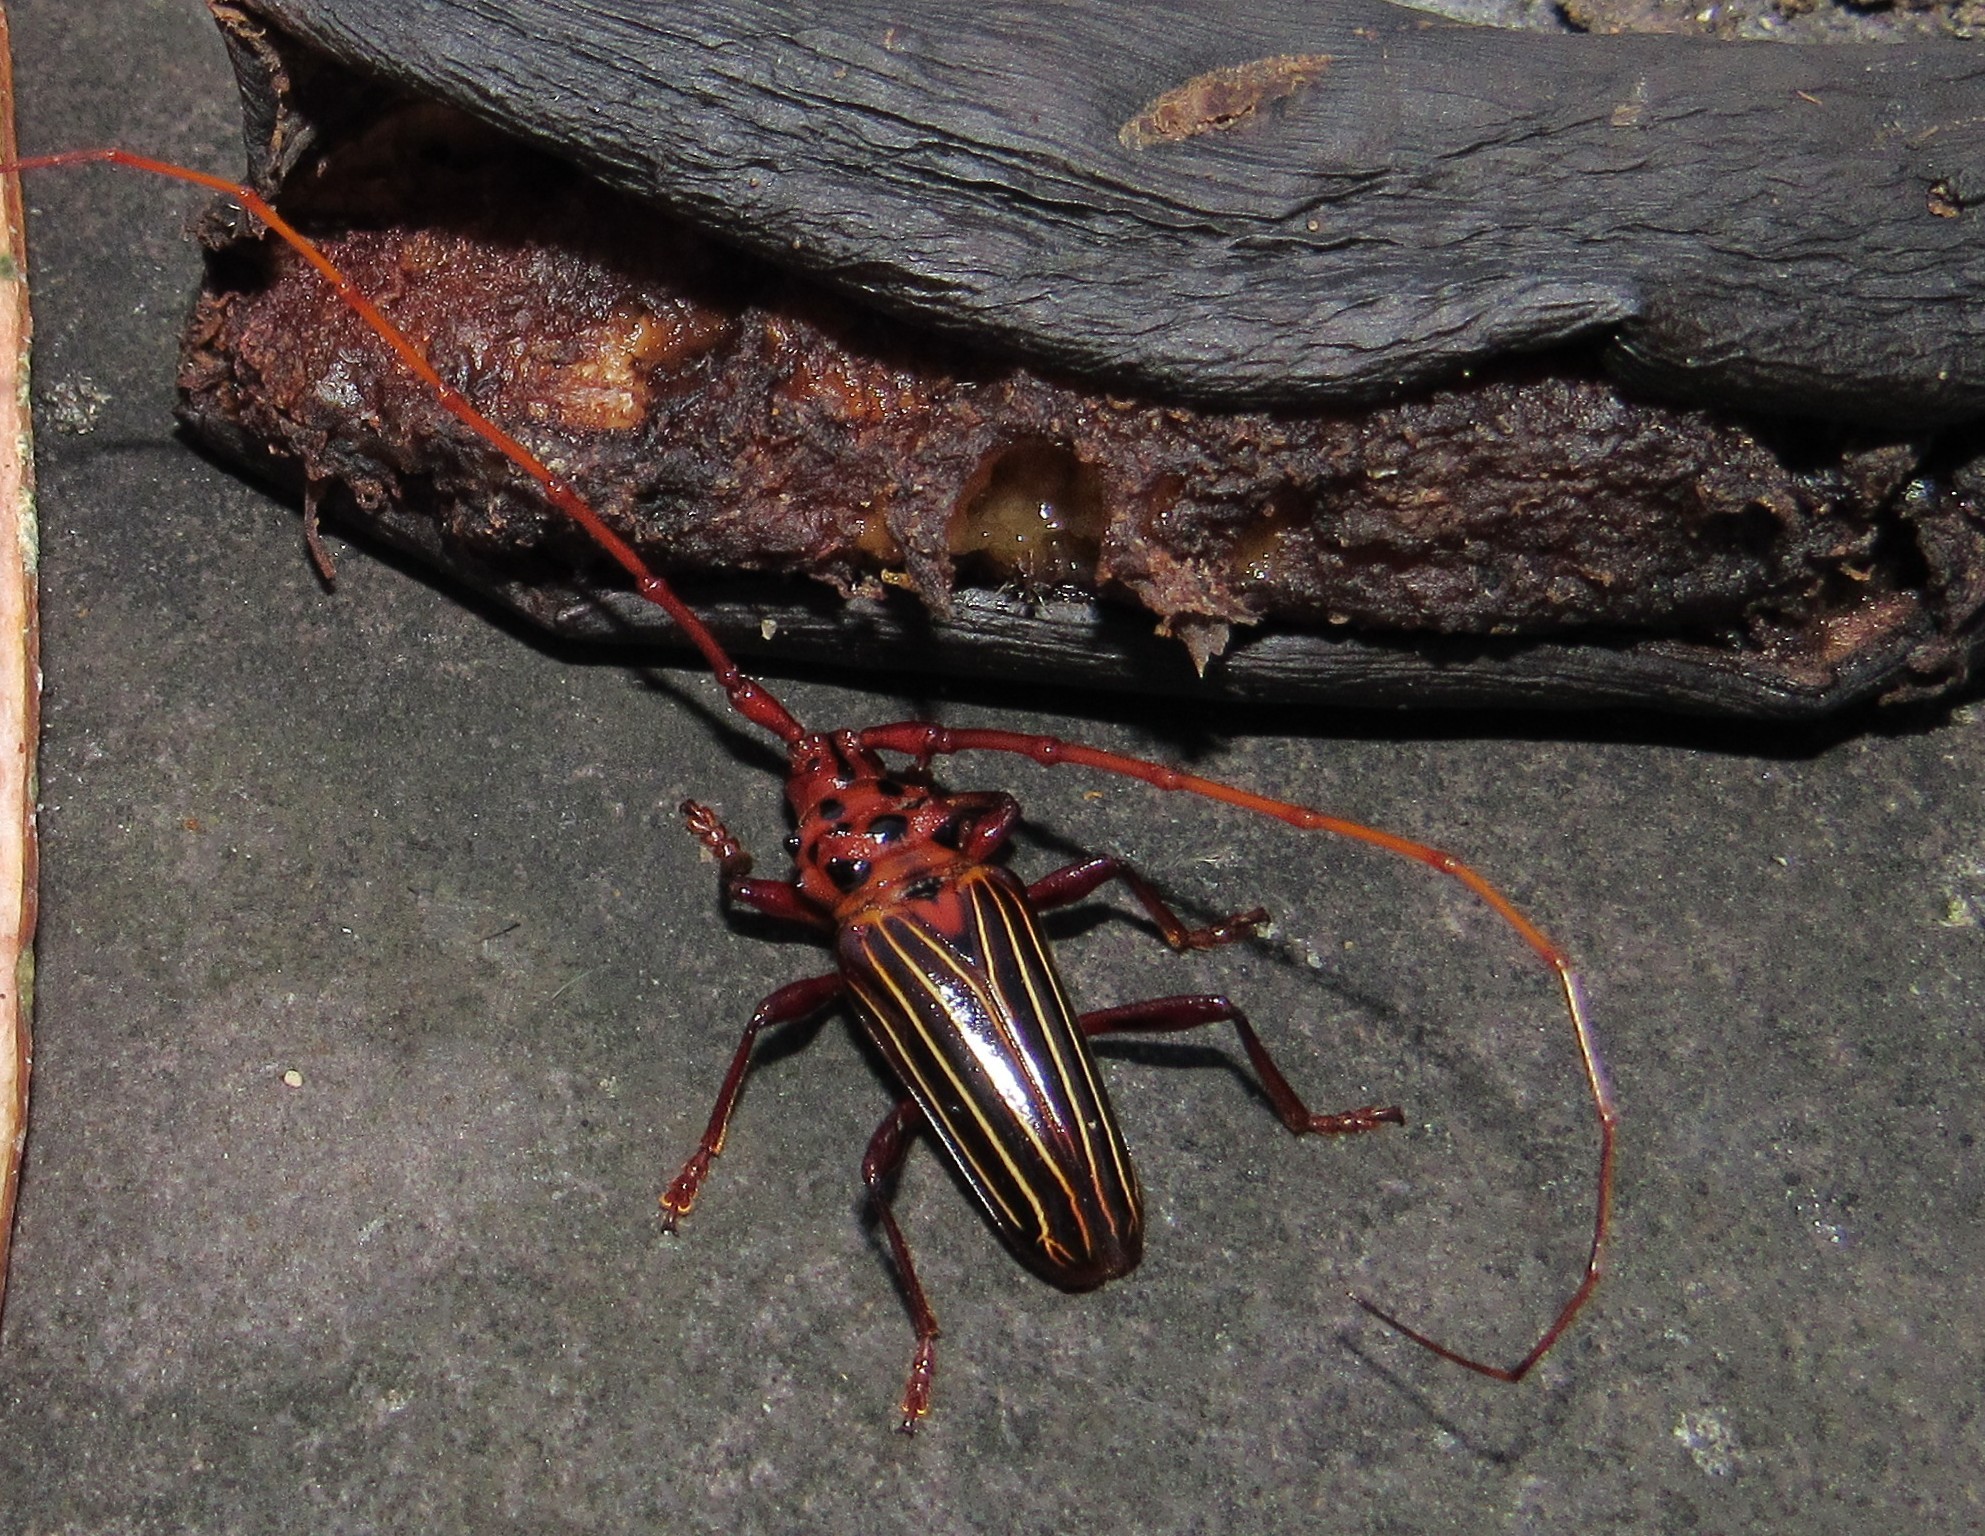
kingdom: Animalia
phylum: Arthropoda
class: Insecta
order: Coleoptera
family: Cerambycidae
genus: Chydarteres
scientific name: Chydarteres striatus
